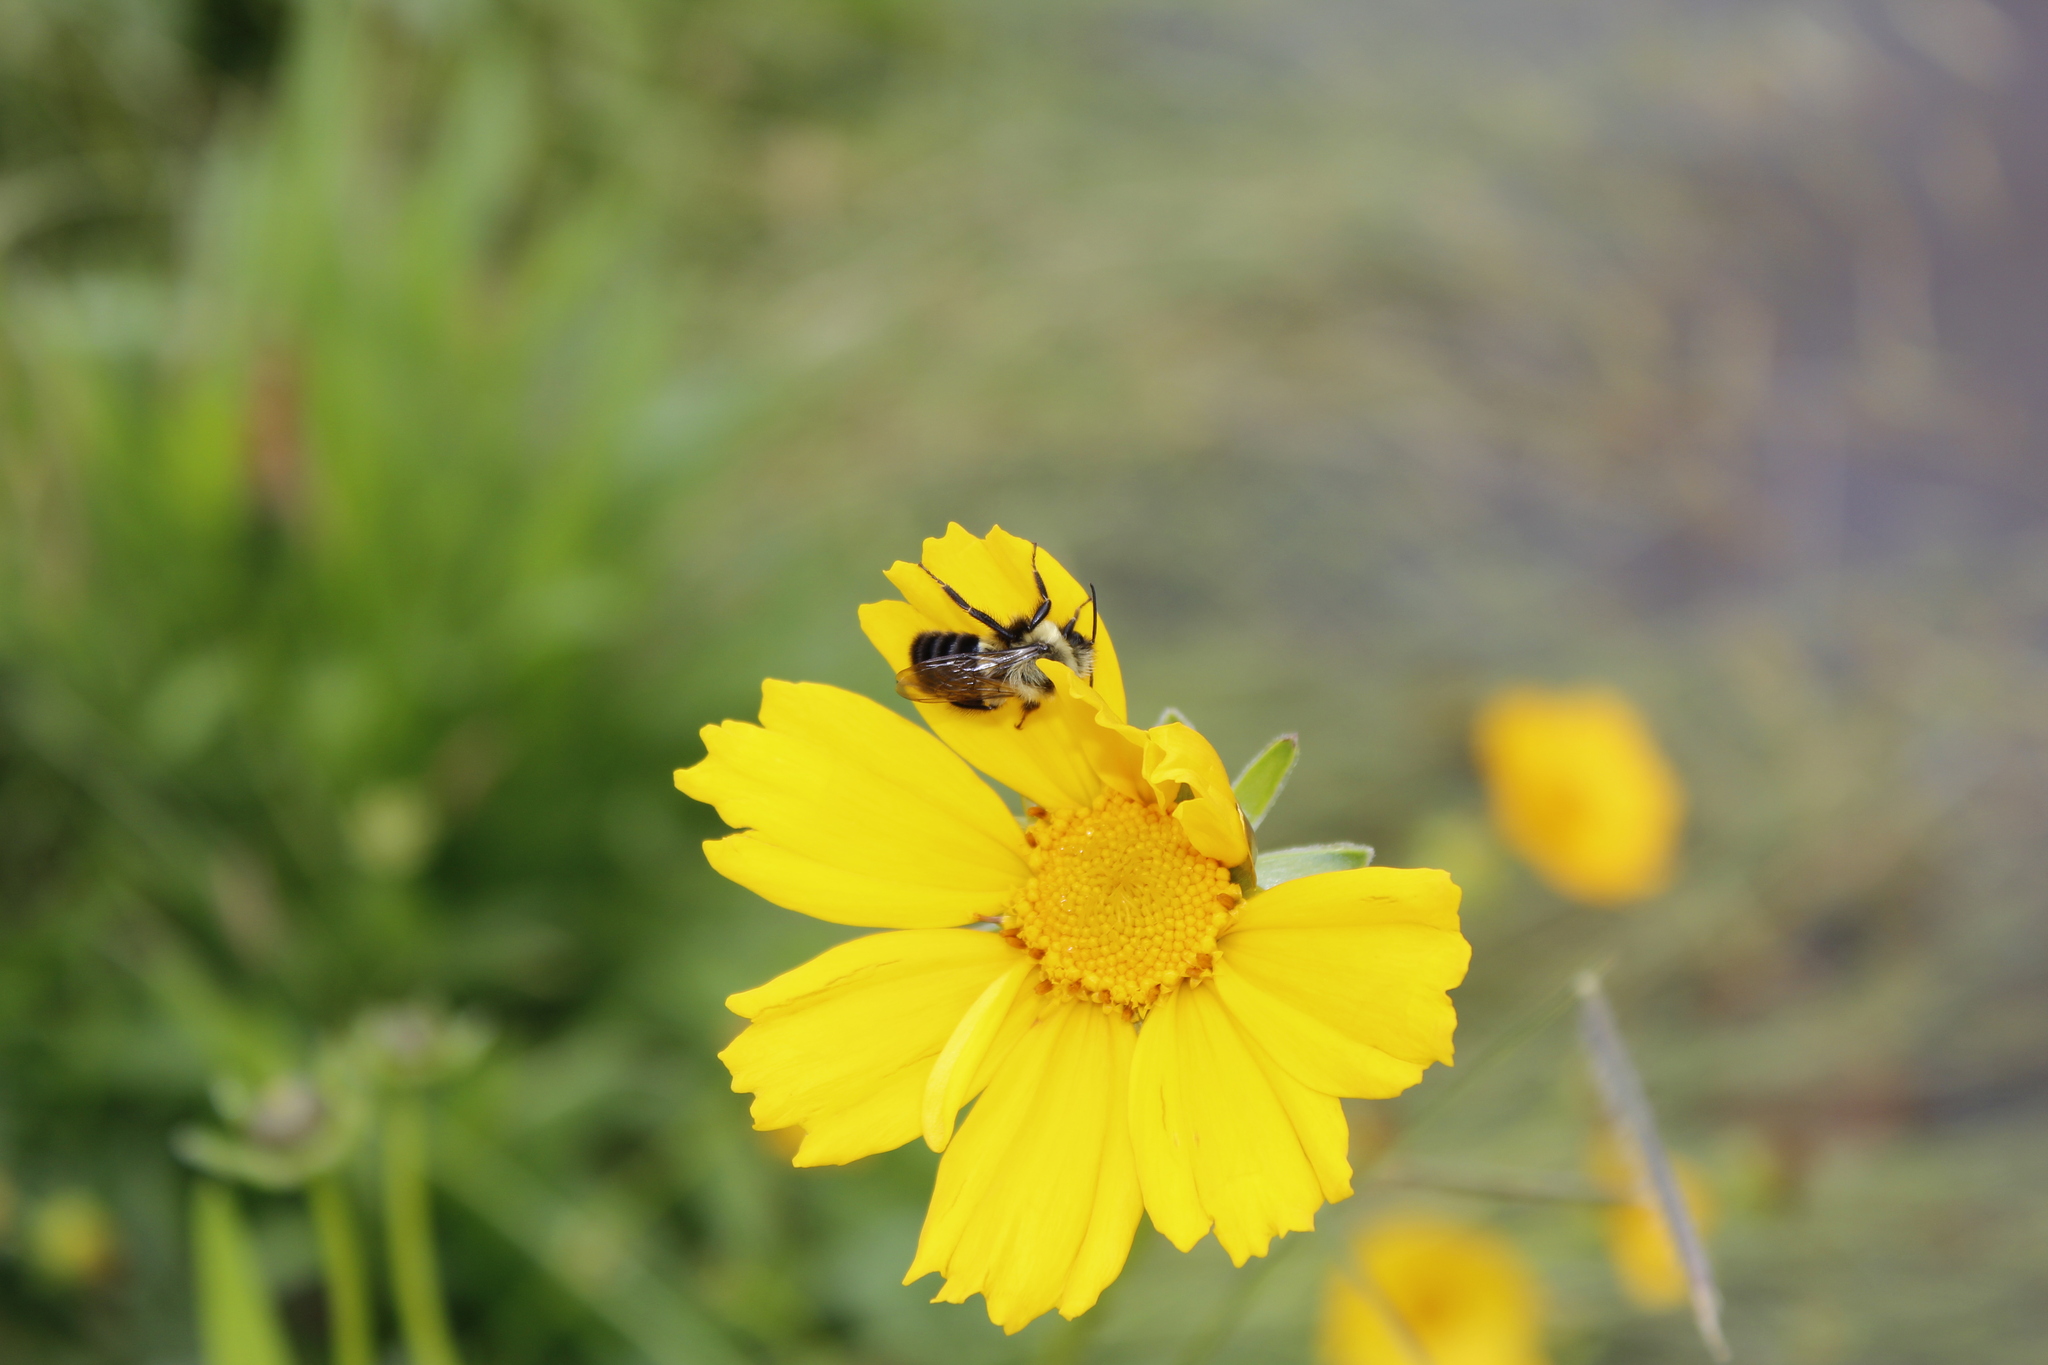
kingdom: Animalia
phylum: Arthropoda
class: Insecta
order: Hymenoptera
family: Apidae
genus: Bombus
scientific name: Bombus impatiens
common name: Common eastern bumble bee
